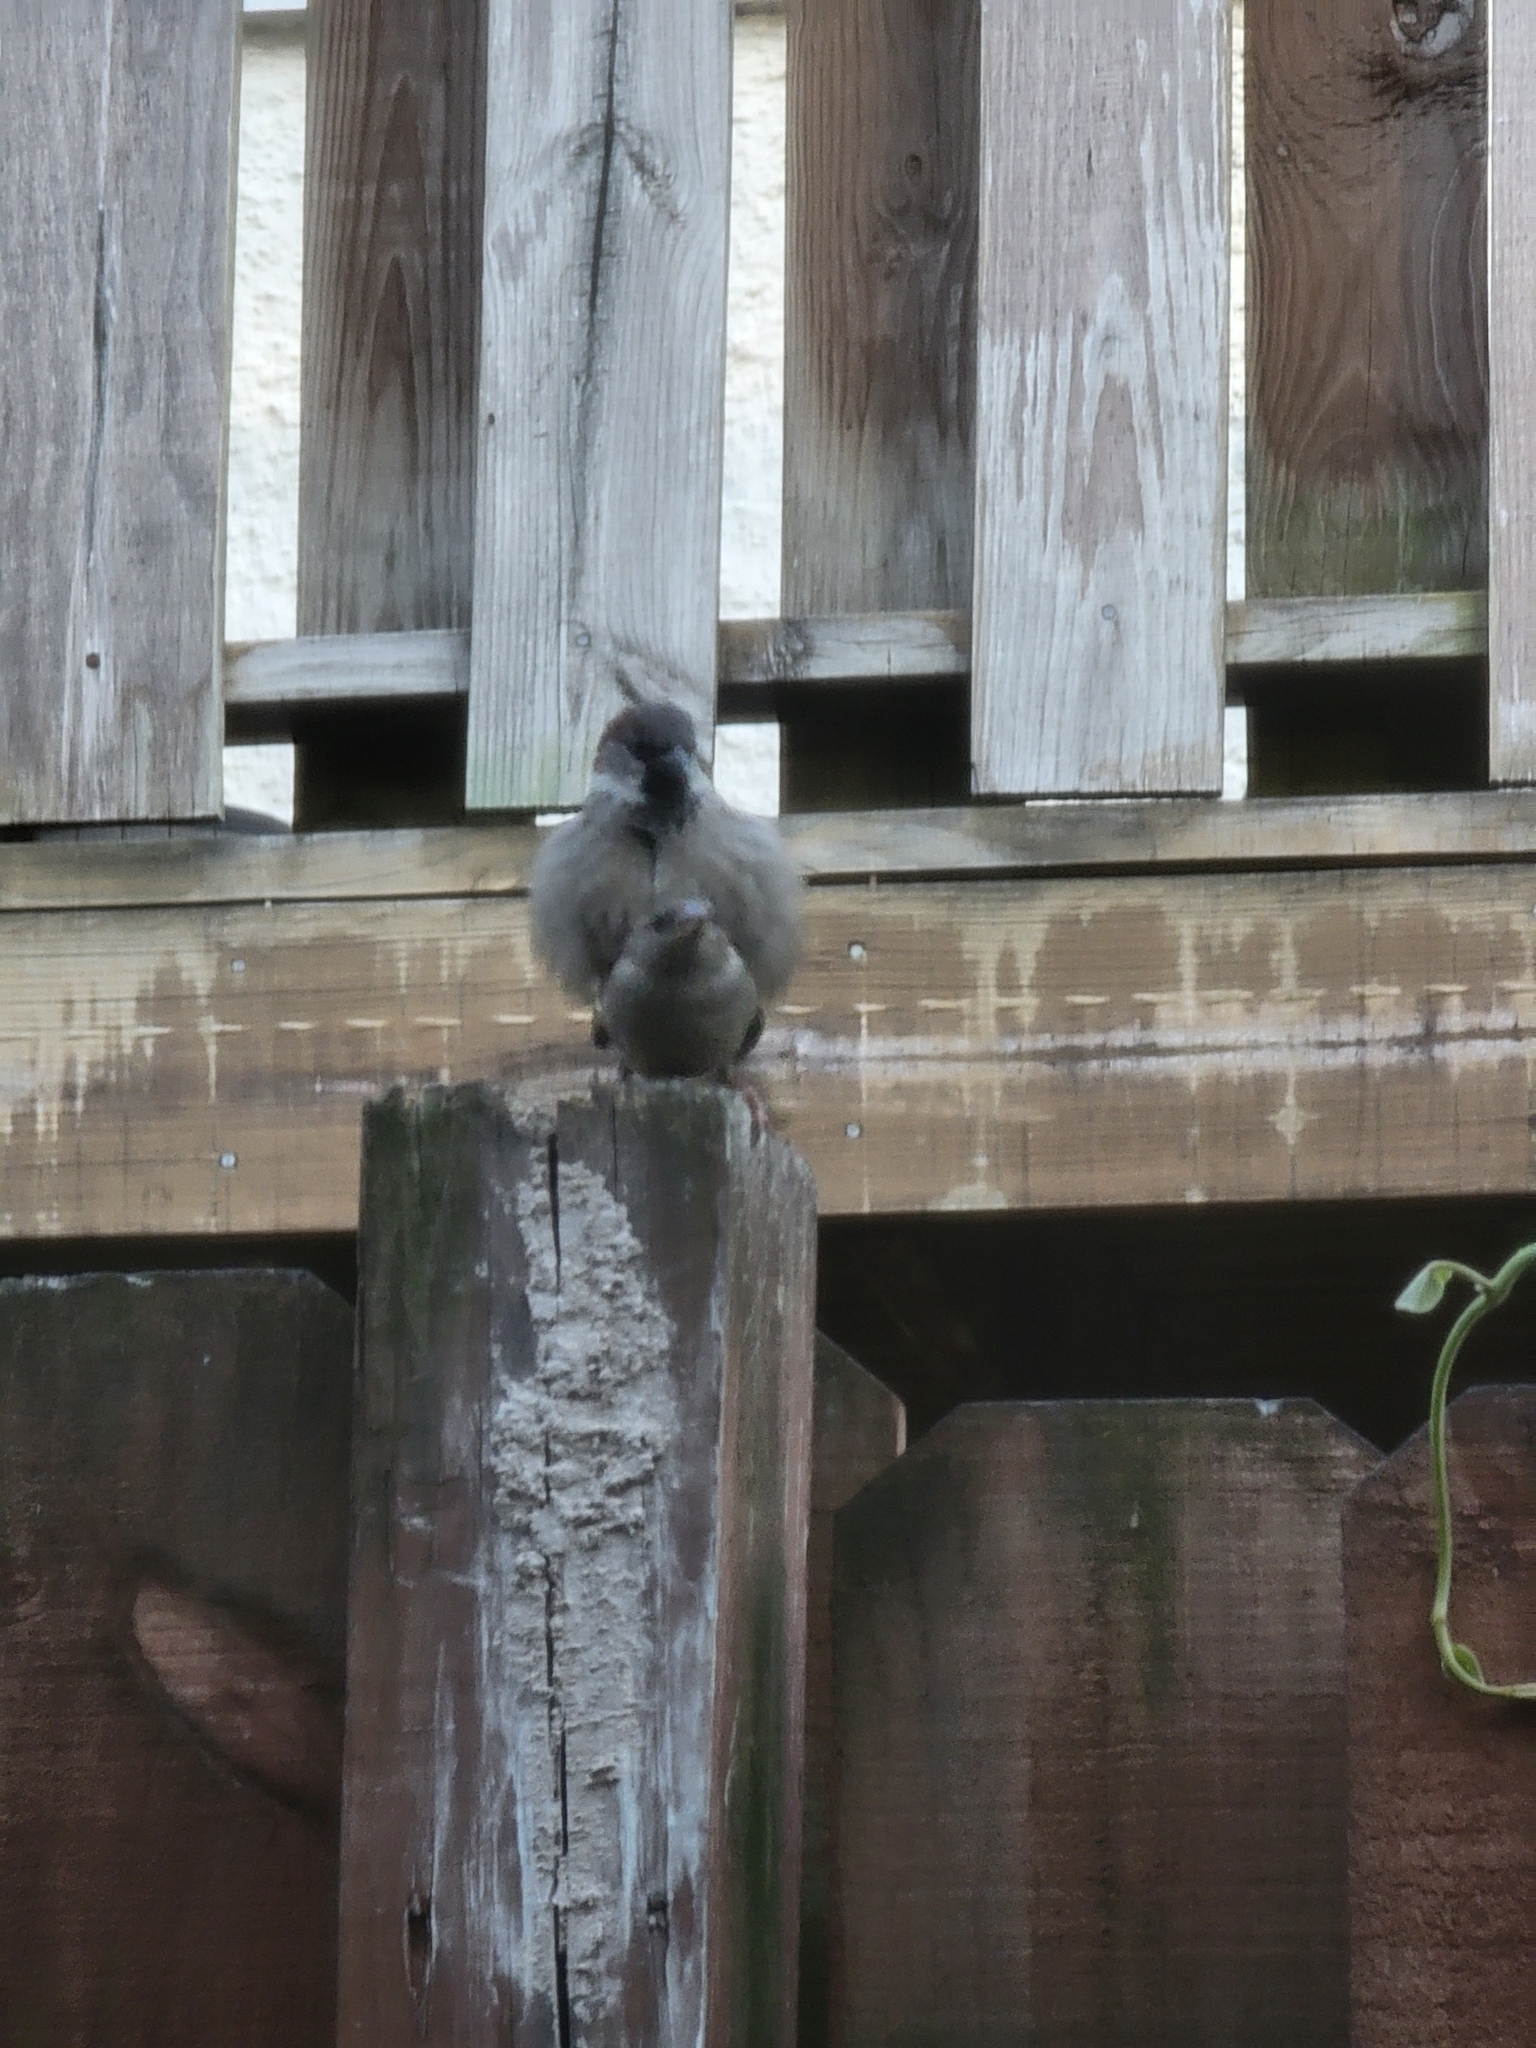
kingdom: Animalia
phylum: Chordata
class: Aves
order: Passeriformes
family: Passeridae
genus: Passer
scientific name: Passer domesticus
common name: House sparrow
